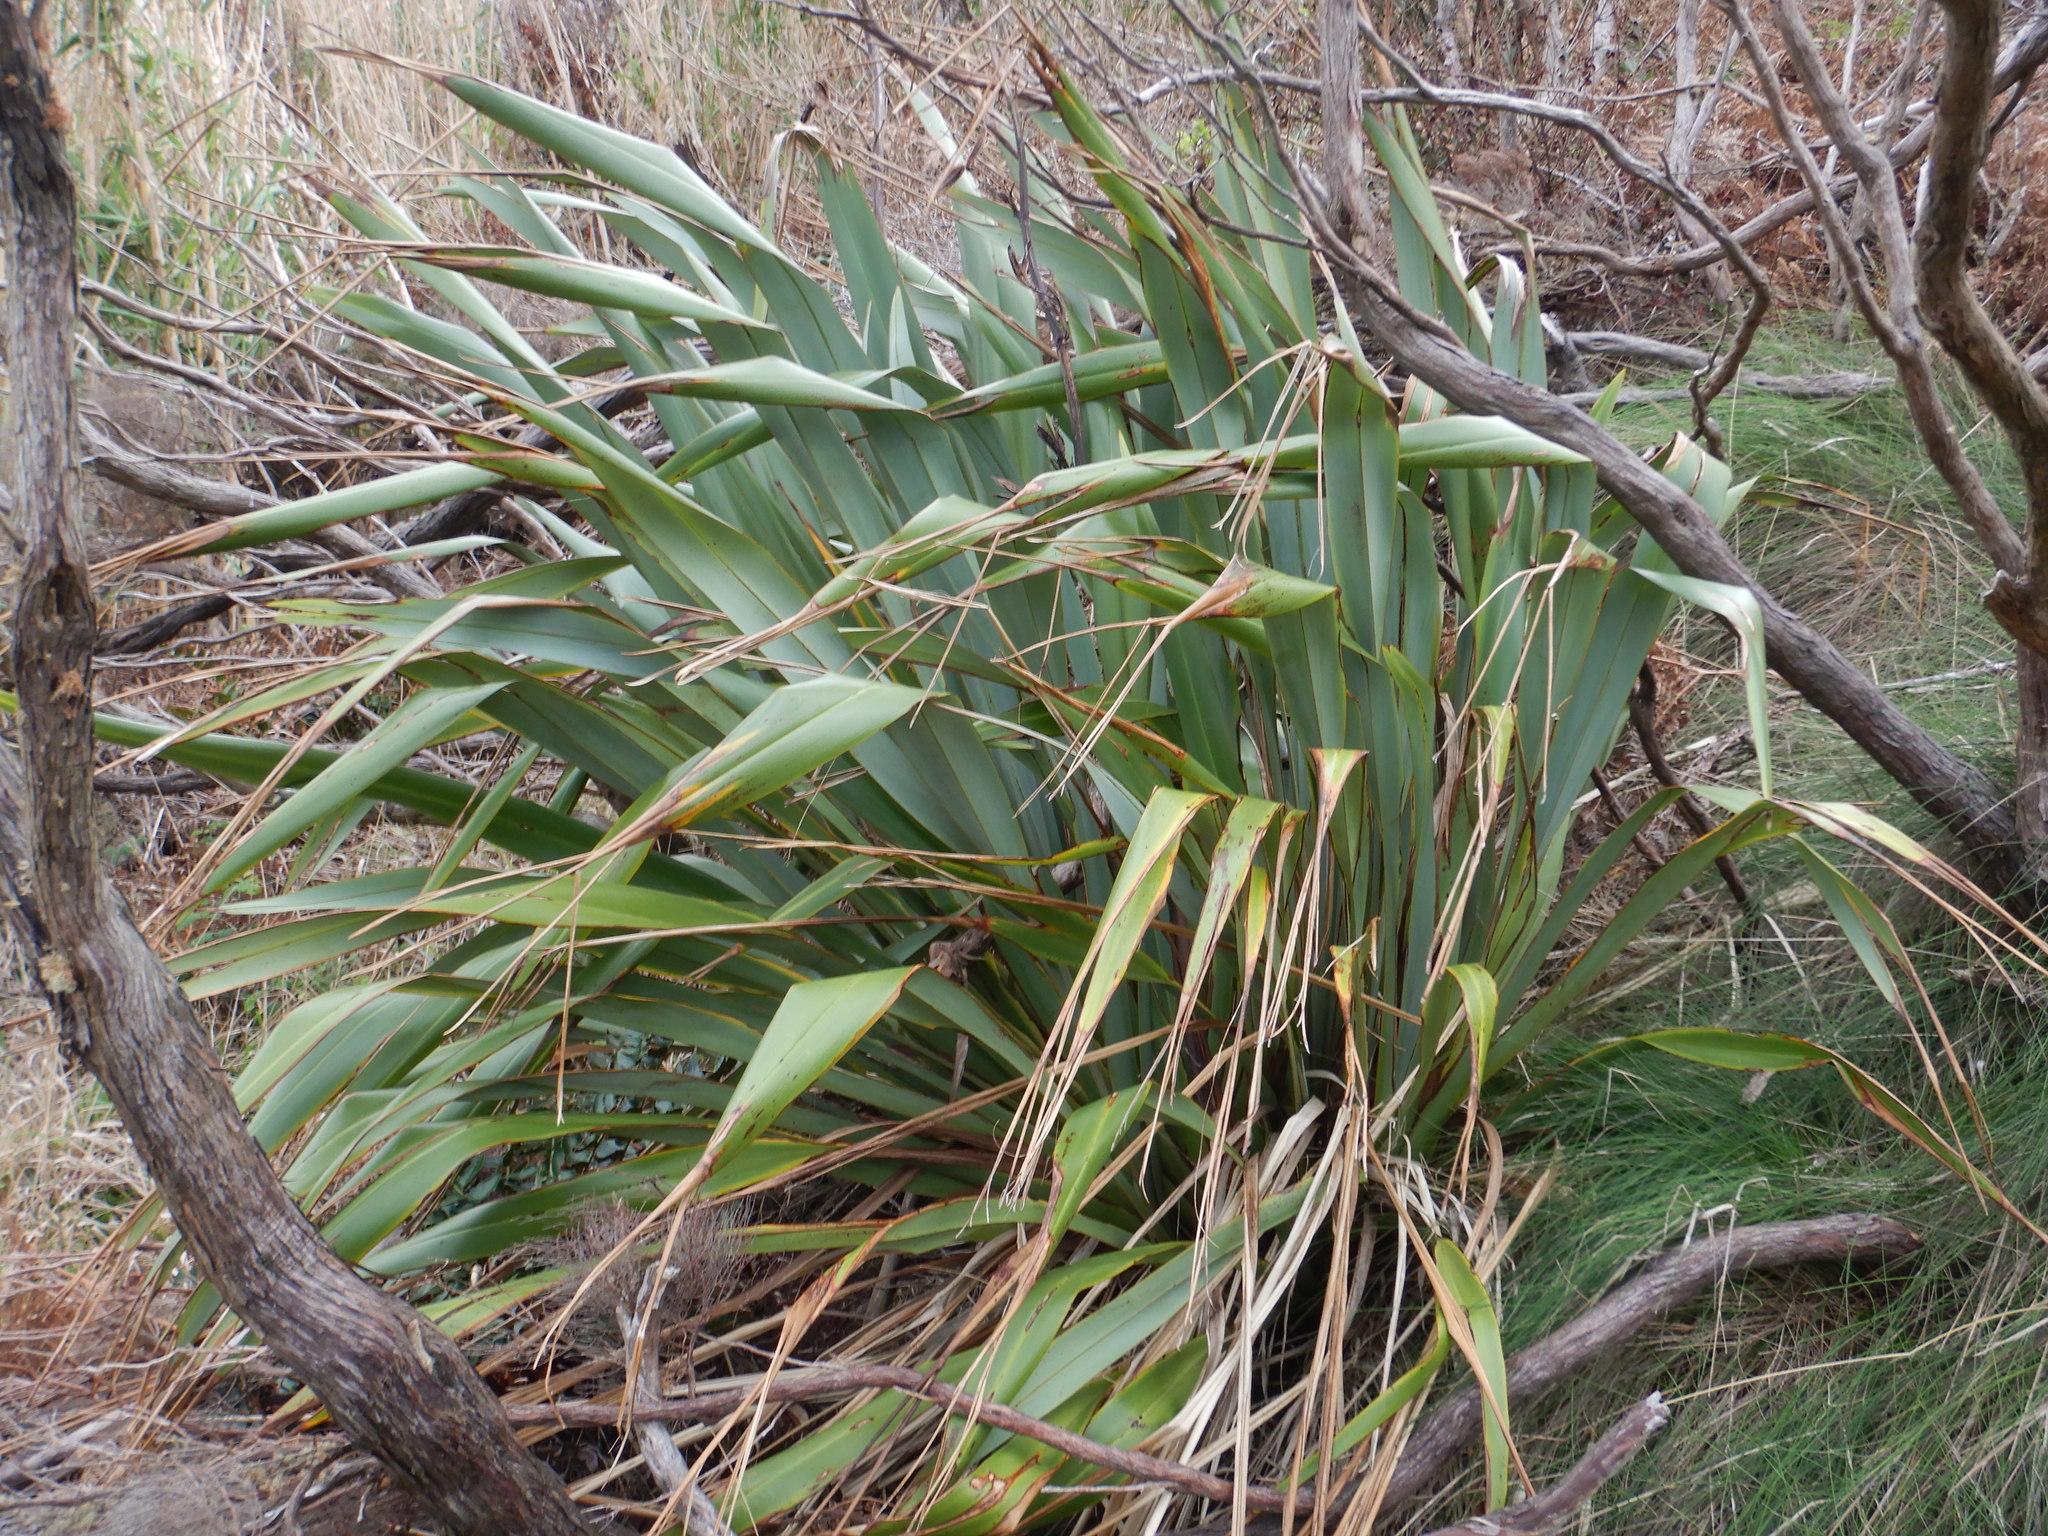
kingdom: Plantae
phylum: Tracheophyta
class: Liliopsida
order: Asparagales
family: Asphodelaceae
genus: Phormium
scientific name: Phormium tenax
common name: New zealand flax
